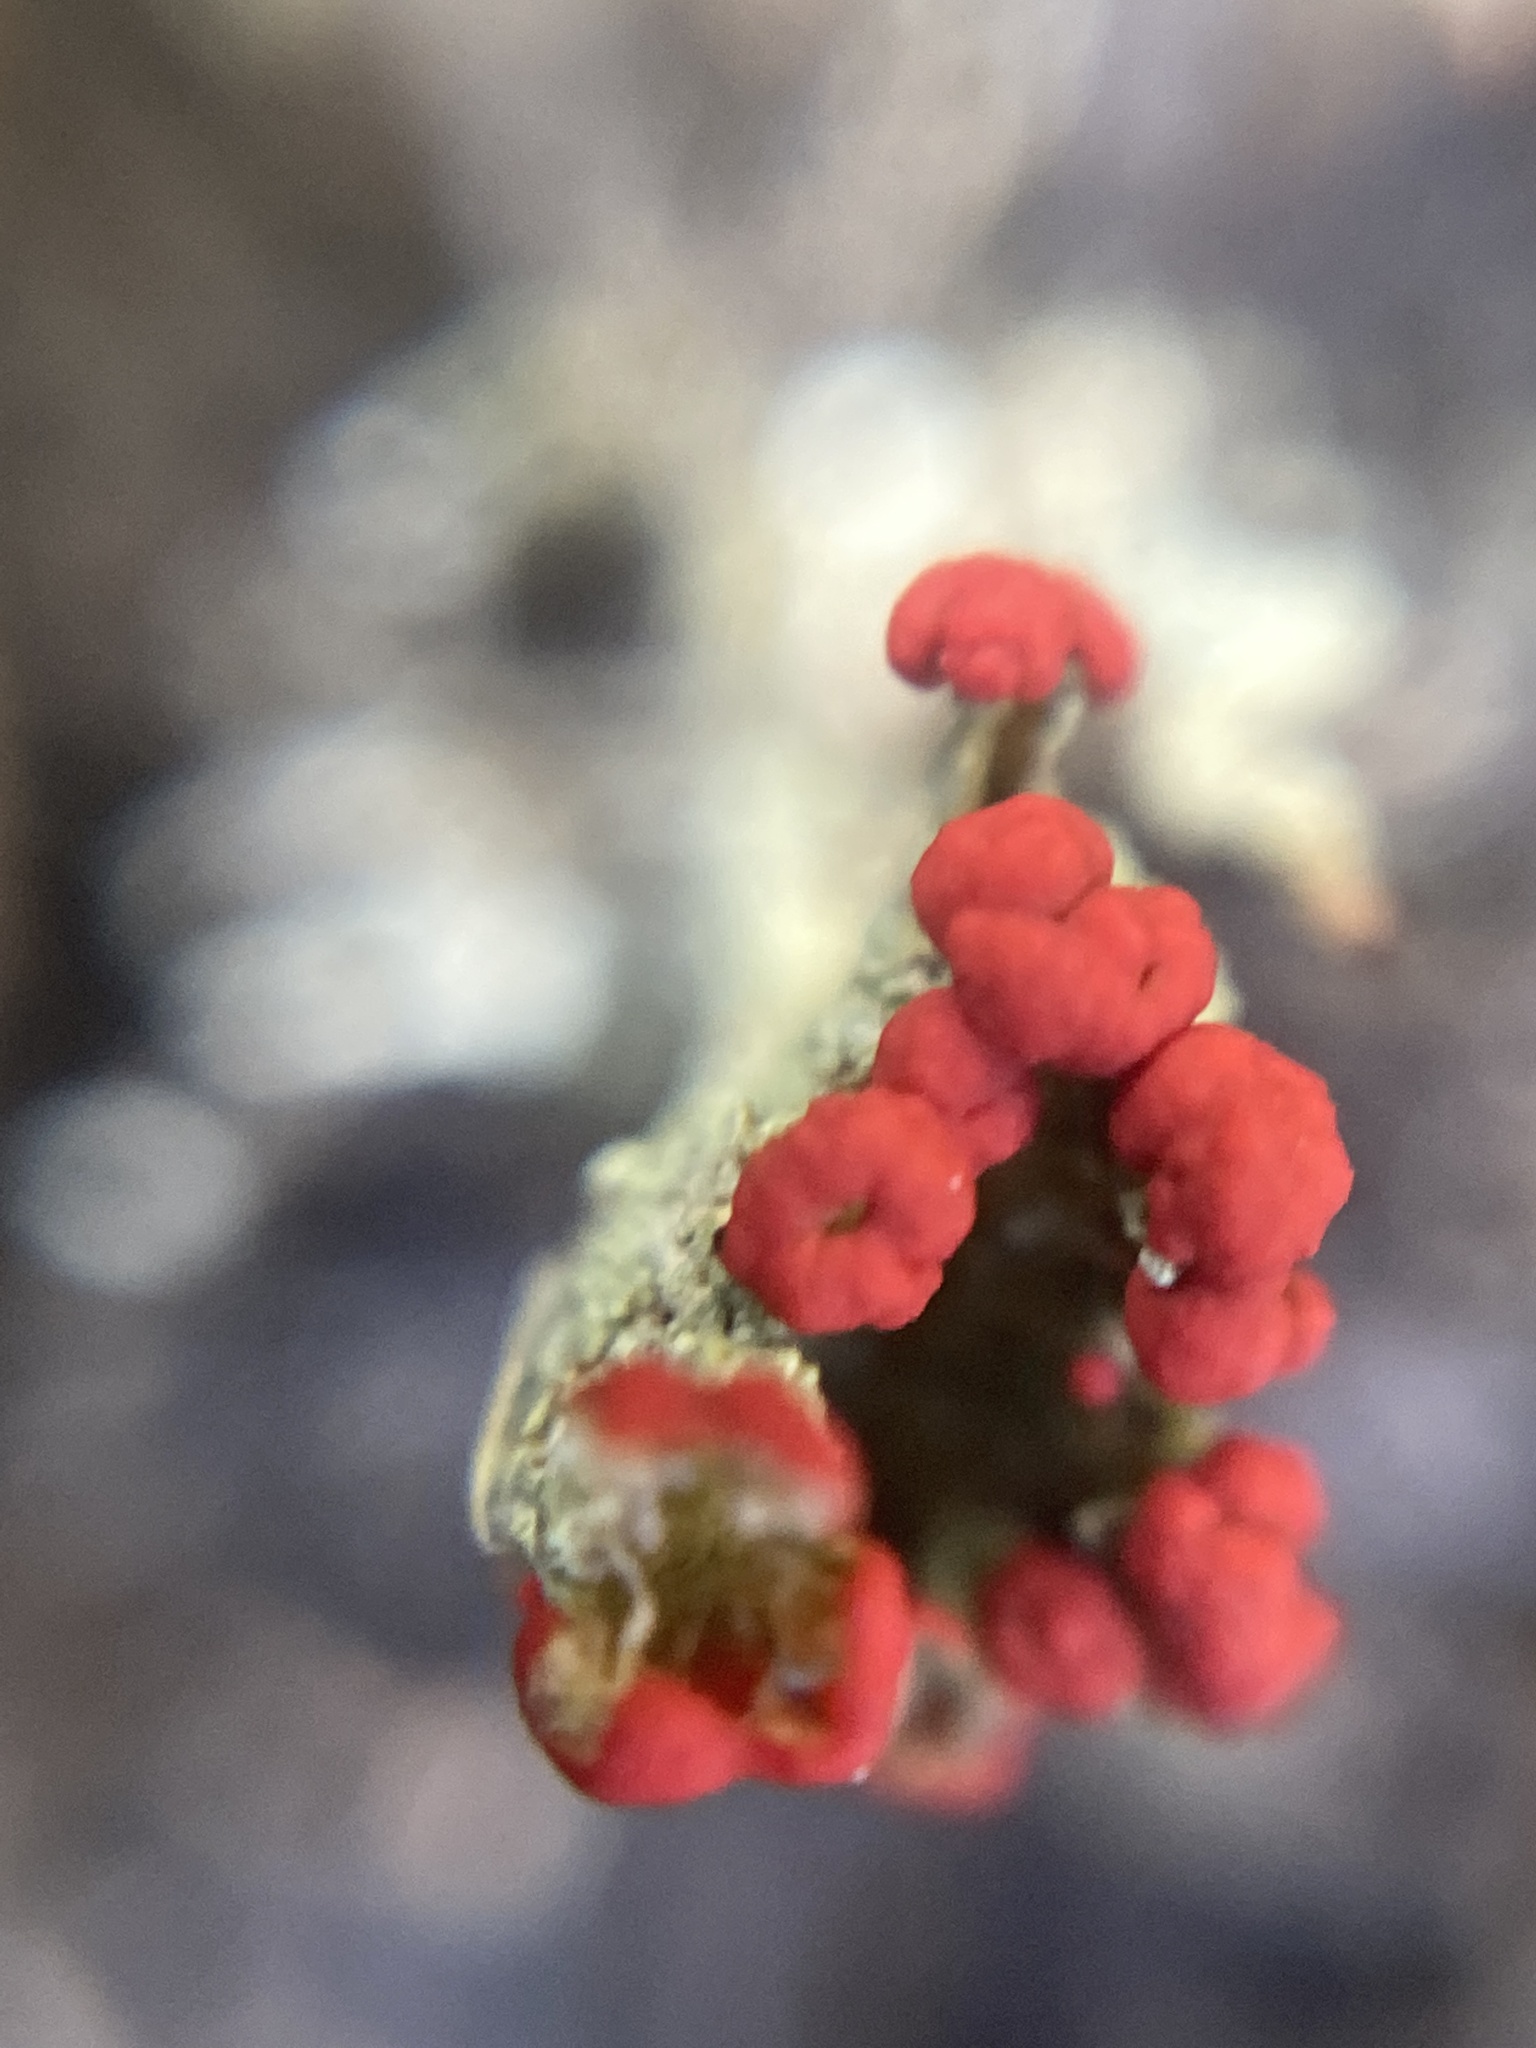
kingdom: Fungi
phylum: Ascomycota
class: Lecanoromycetes
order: Lecanorales
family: Cladoniaceae
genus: Cladonia
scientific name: Cladonia floerkeana
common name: Gritty british soldiers lichen
